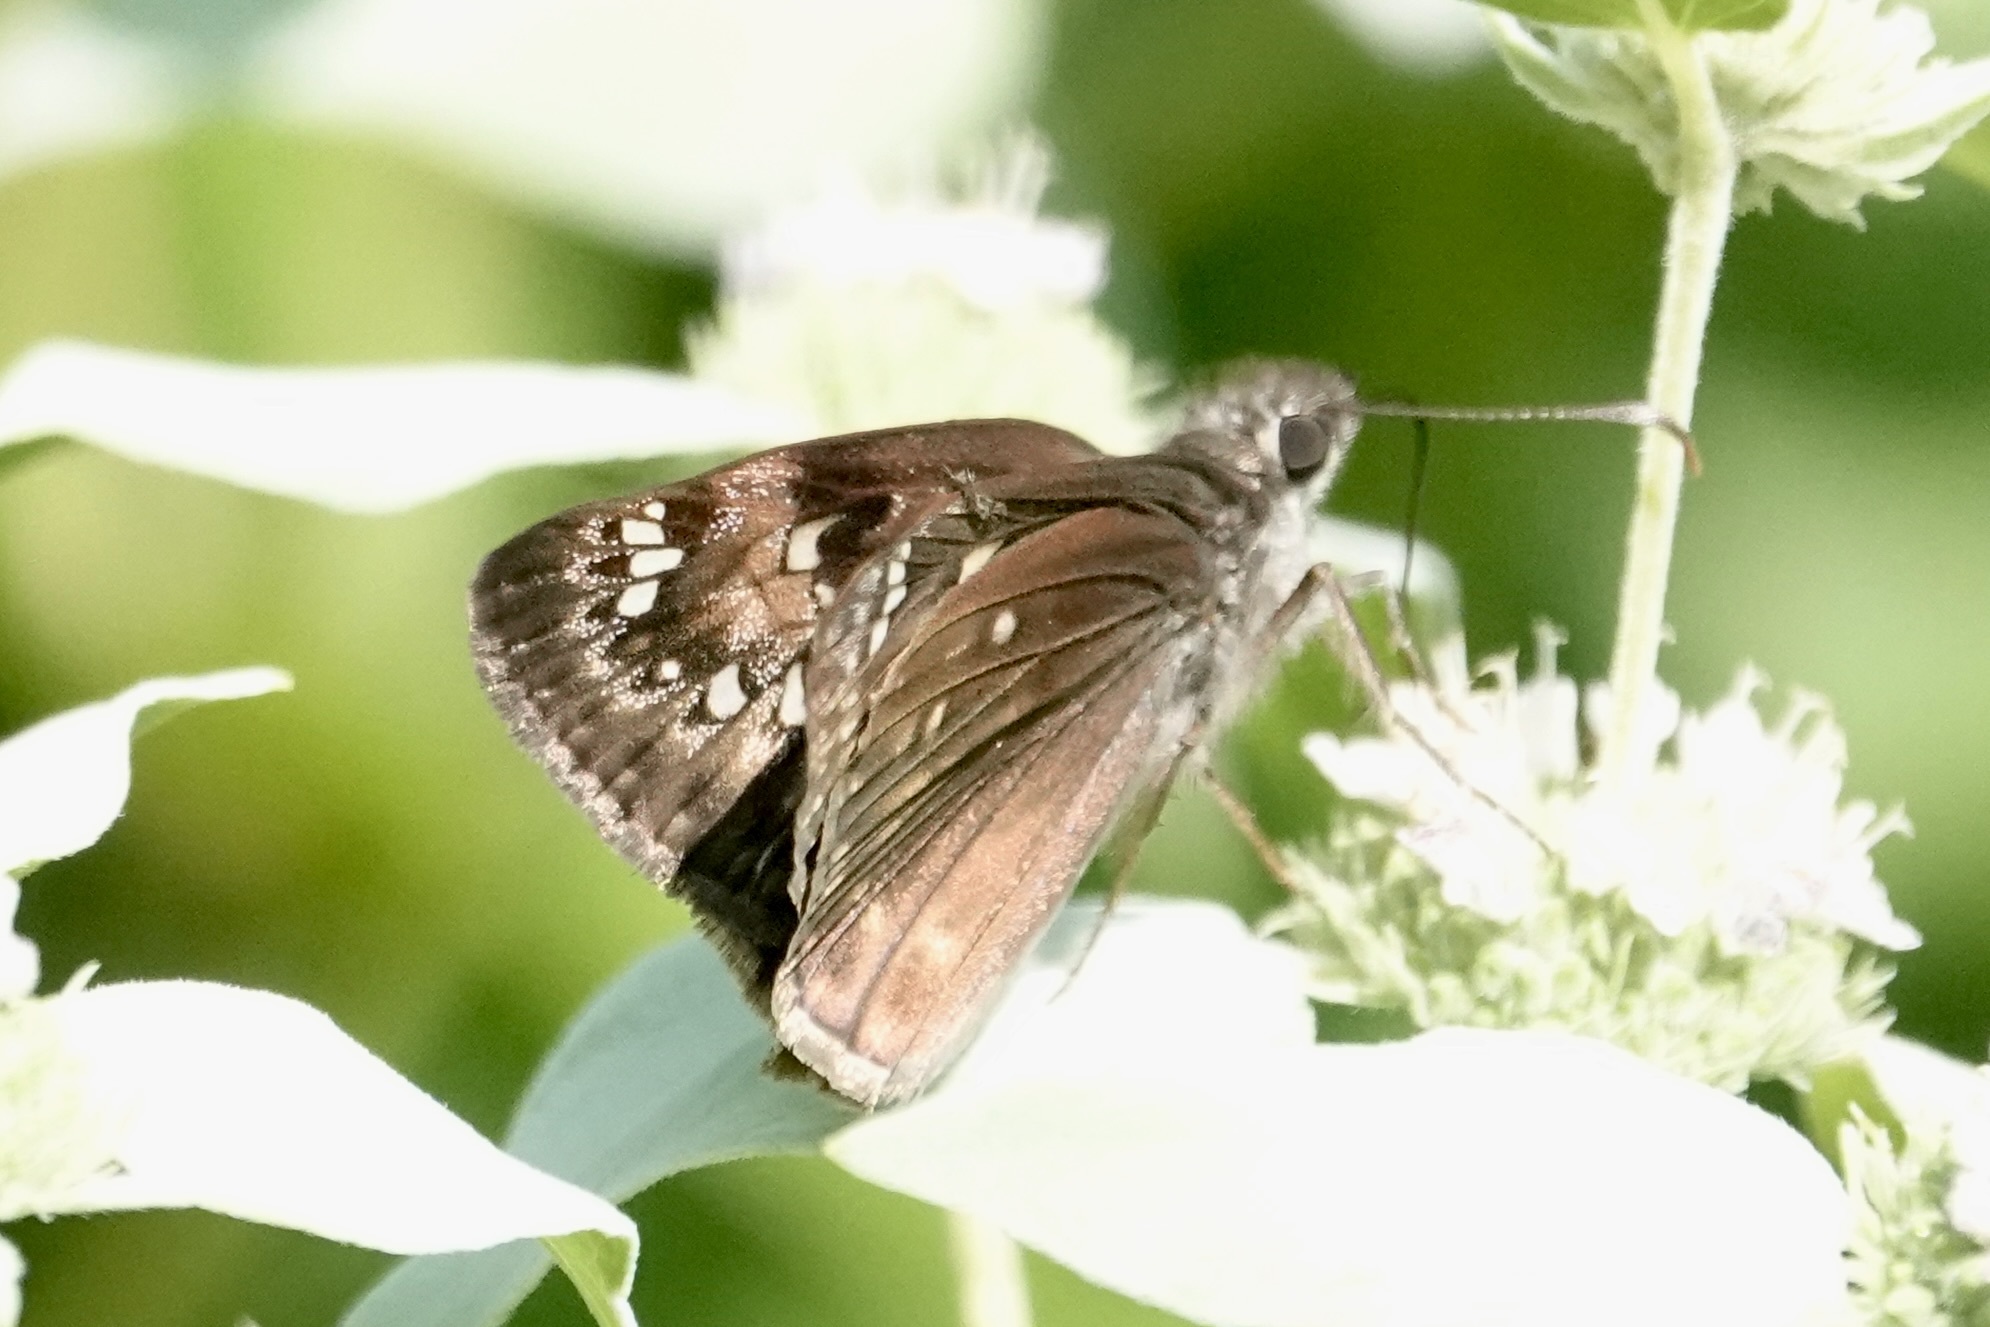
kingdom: Animalia
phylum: Arthropoda
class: Insecta
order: Lepidoptera
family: Hesperiidae
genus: Erynnis
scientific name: Erynnis horatius
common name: Horace's duskywing
